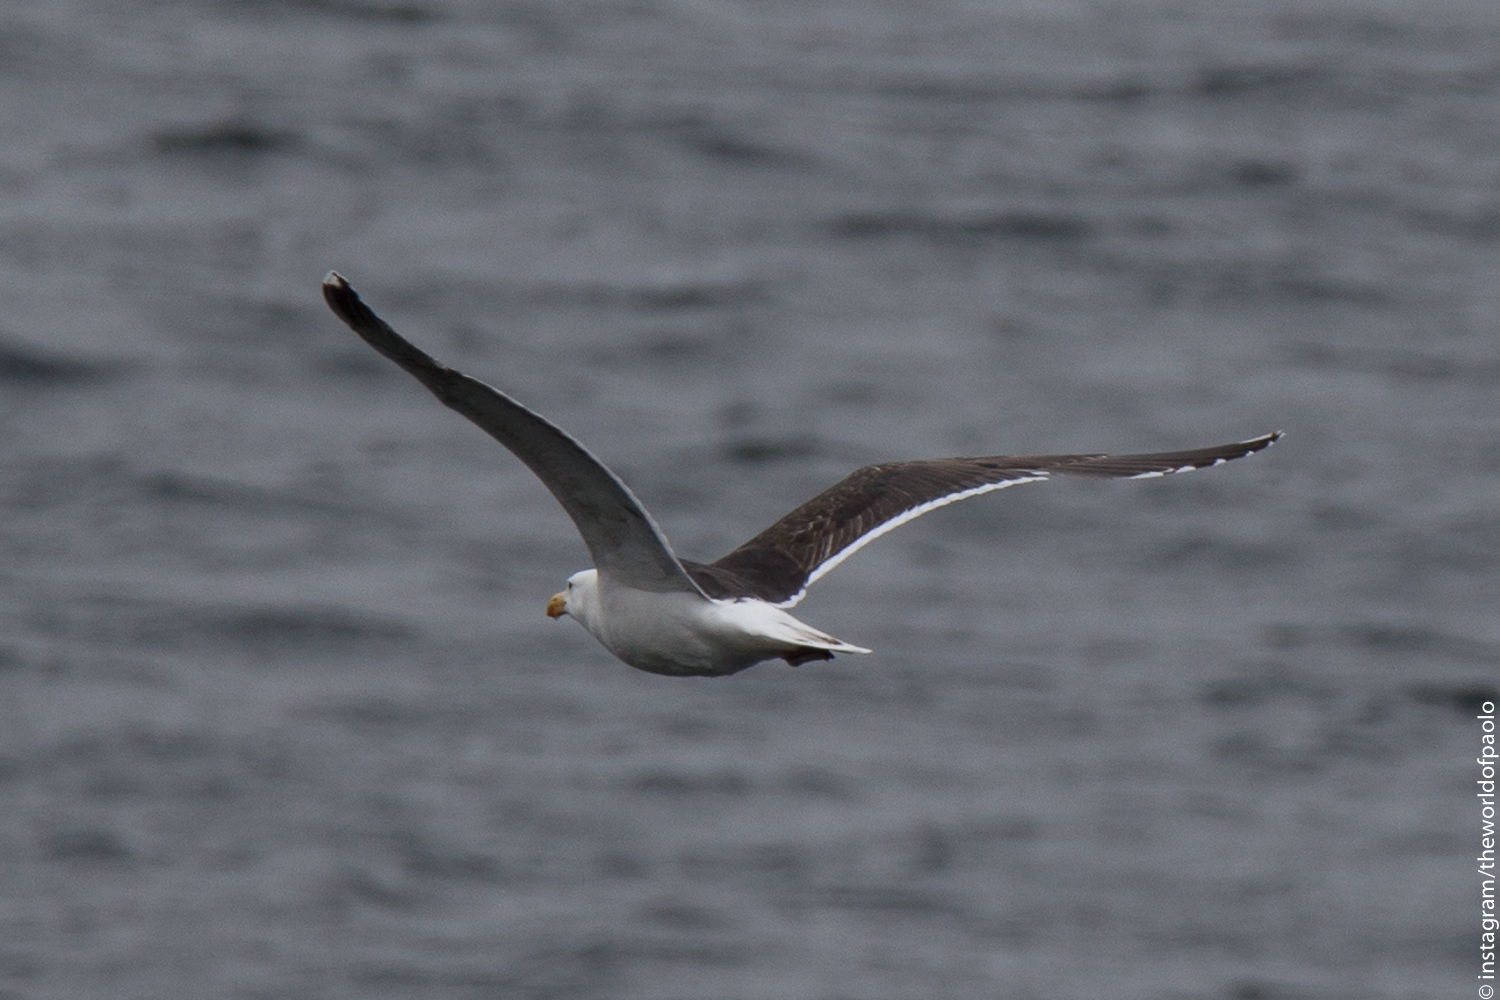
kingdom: Animalia
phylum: Chordata
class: Aves
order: Charadriiformes
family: Laridae
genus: Larus
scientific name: Larus marinus
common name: Great black-backed gull
